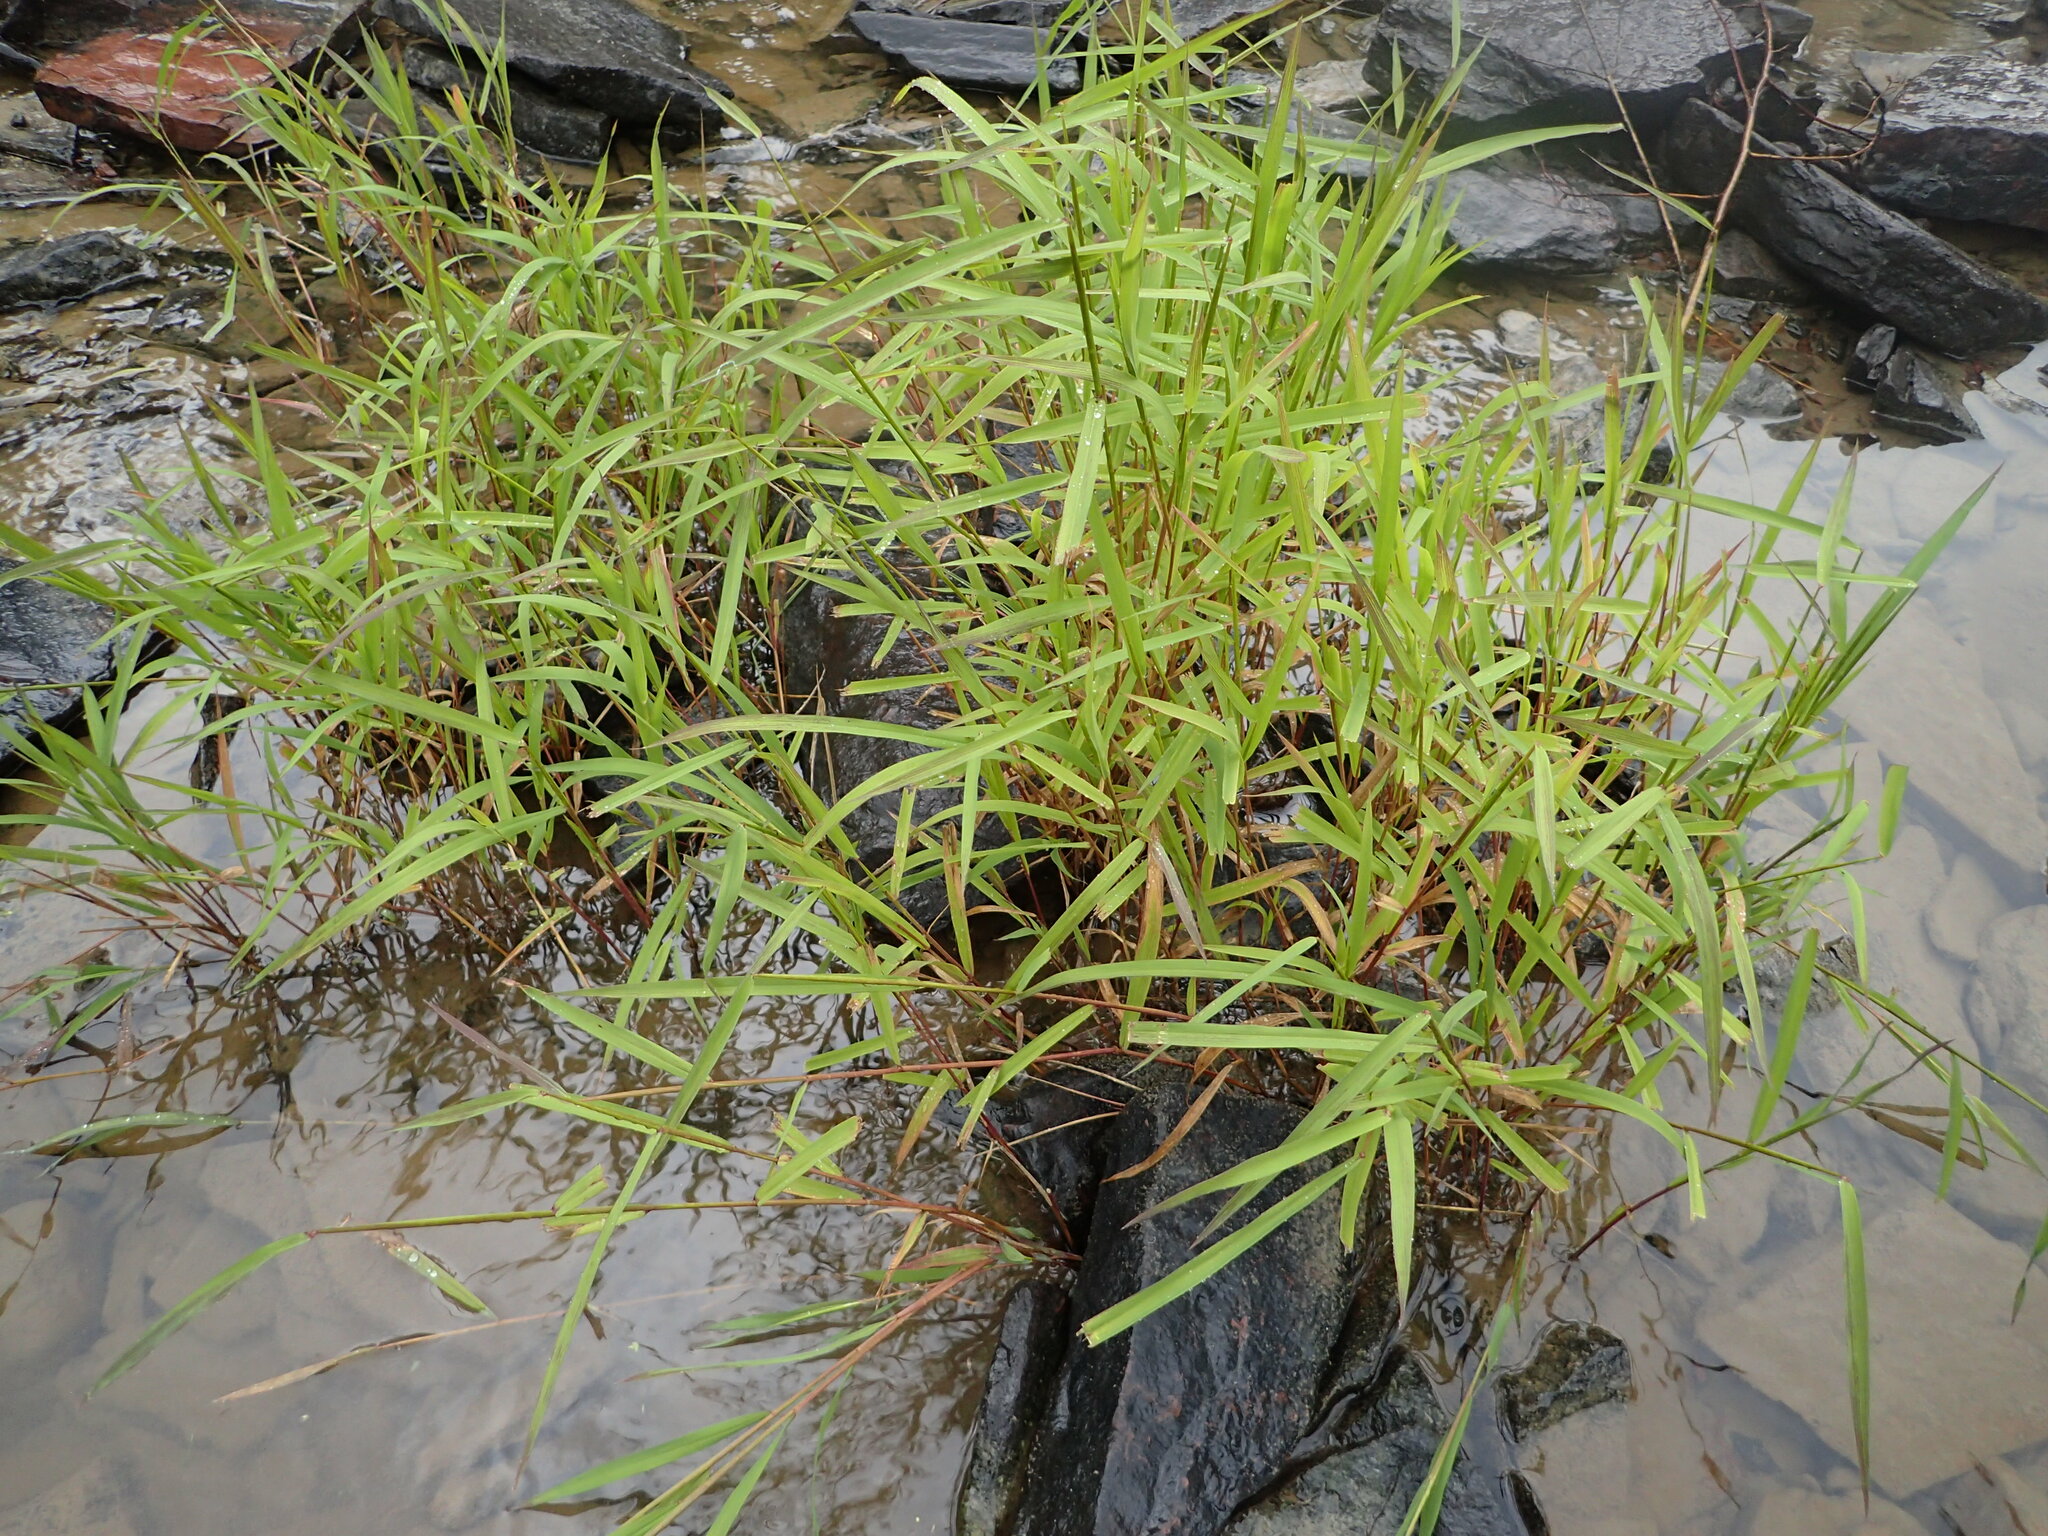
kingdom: Plantae
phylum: Tracheophyta
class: Liliopsida
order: Poales
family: Poaceae
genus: Leersia
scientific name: Leersia oryzoides
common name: Cut-grass
